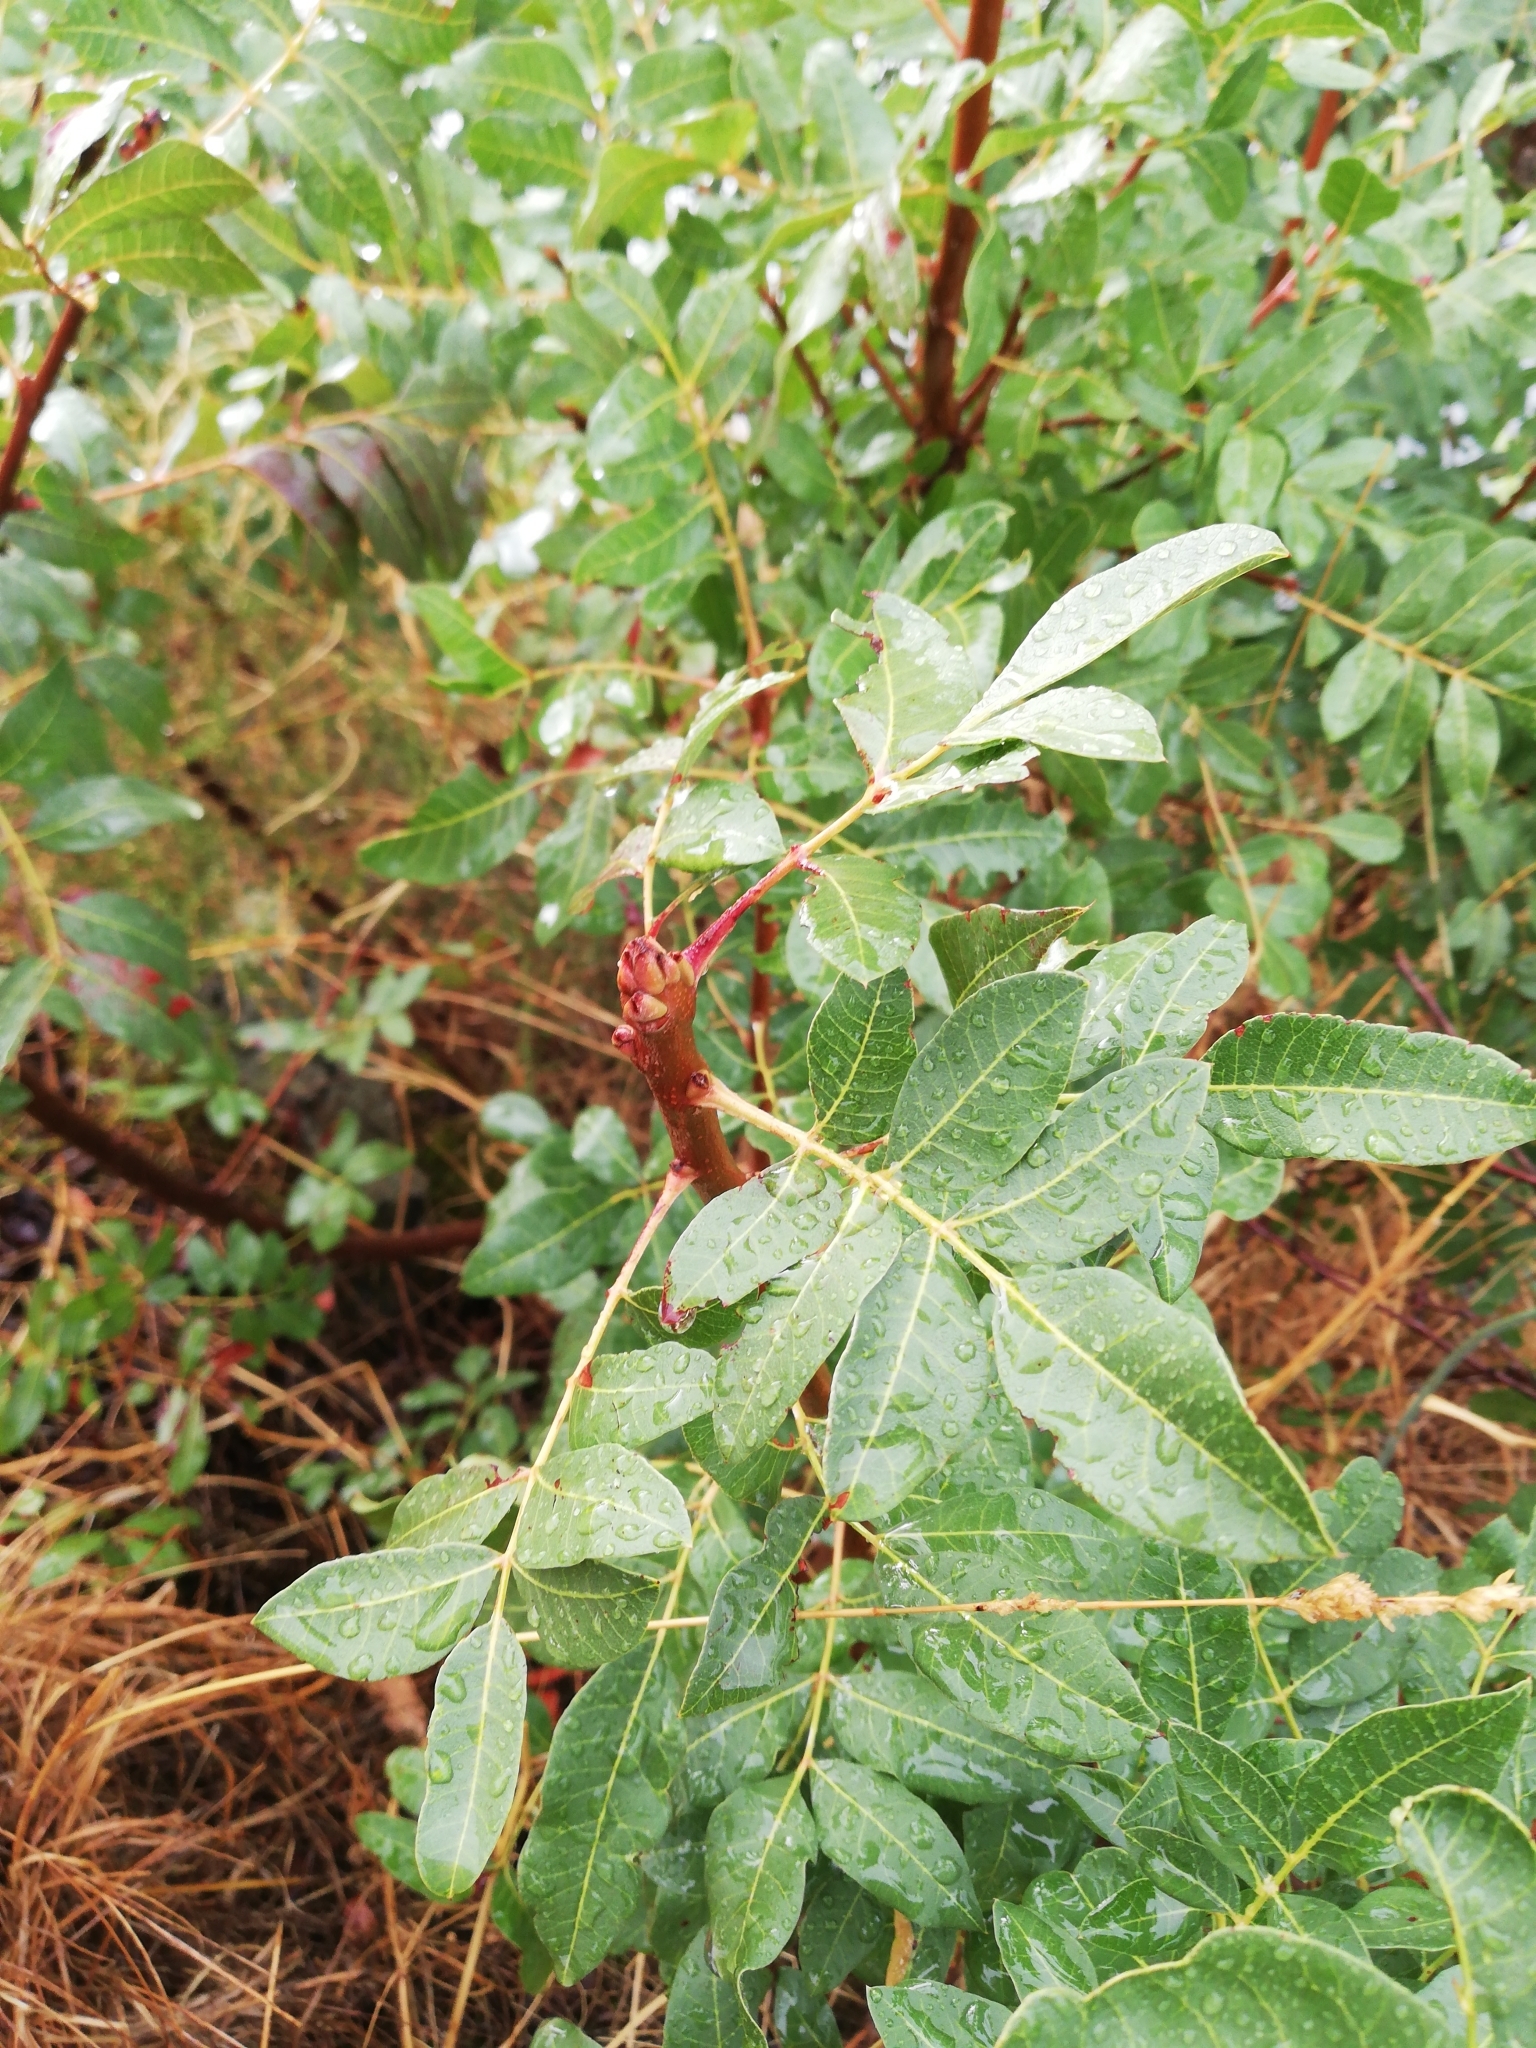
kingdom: Plantae
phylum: Tracheophyta
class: Magnoliopsida
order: Sapindales
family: Anacardiaceae
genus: Pistacia
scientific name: Pistacia terebinthus
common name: Terebinth
